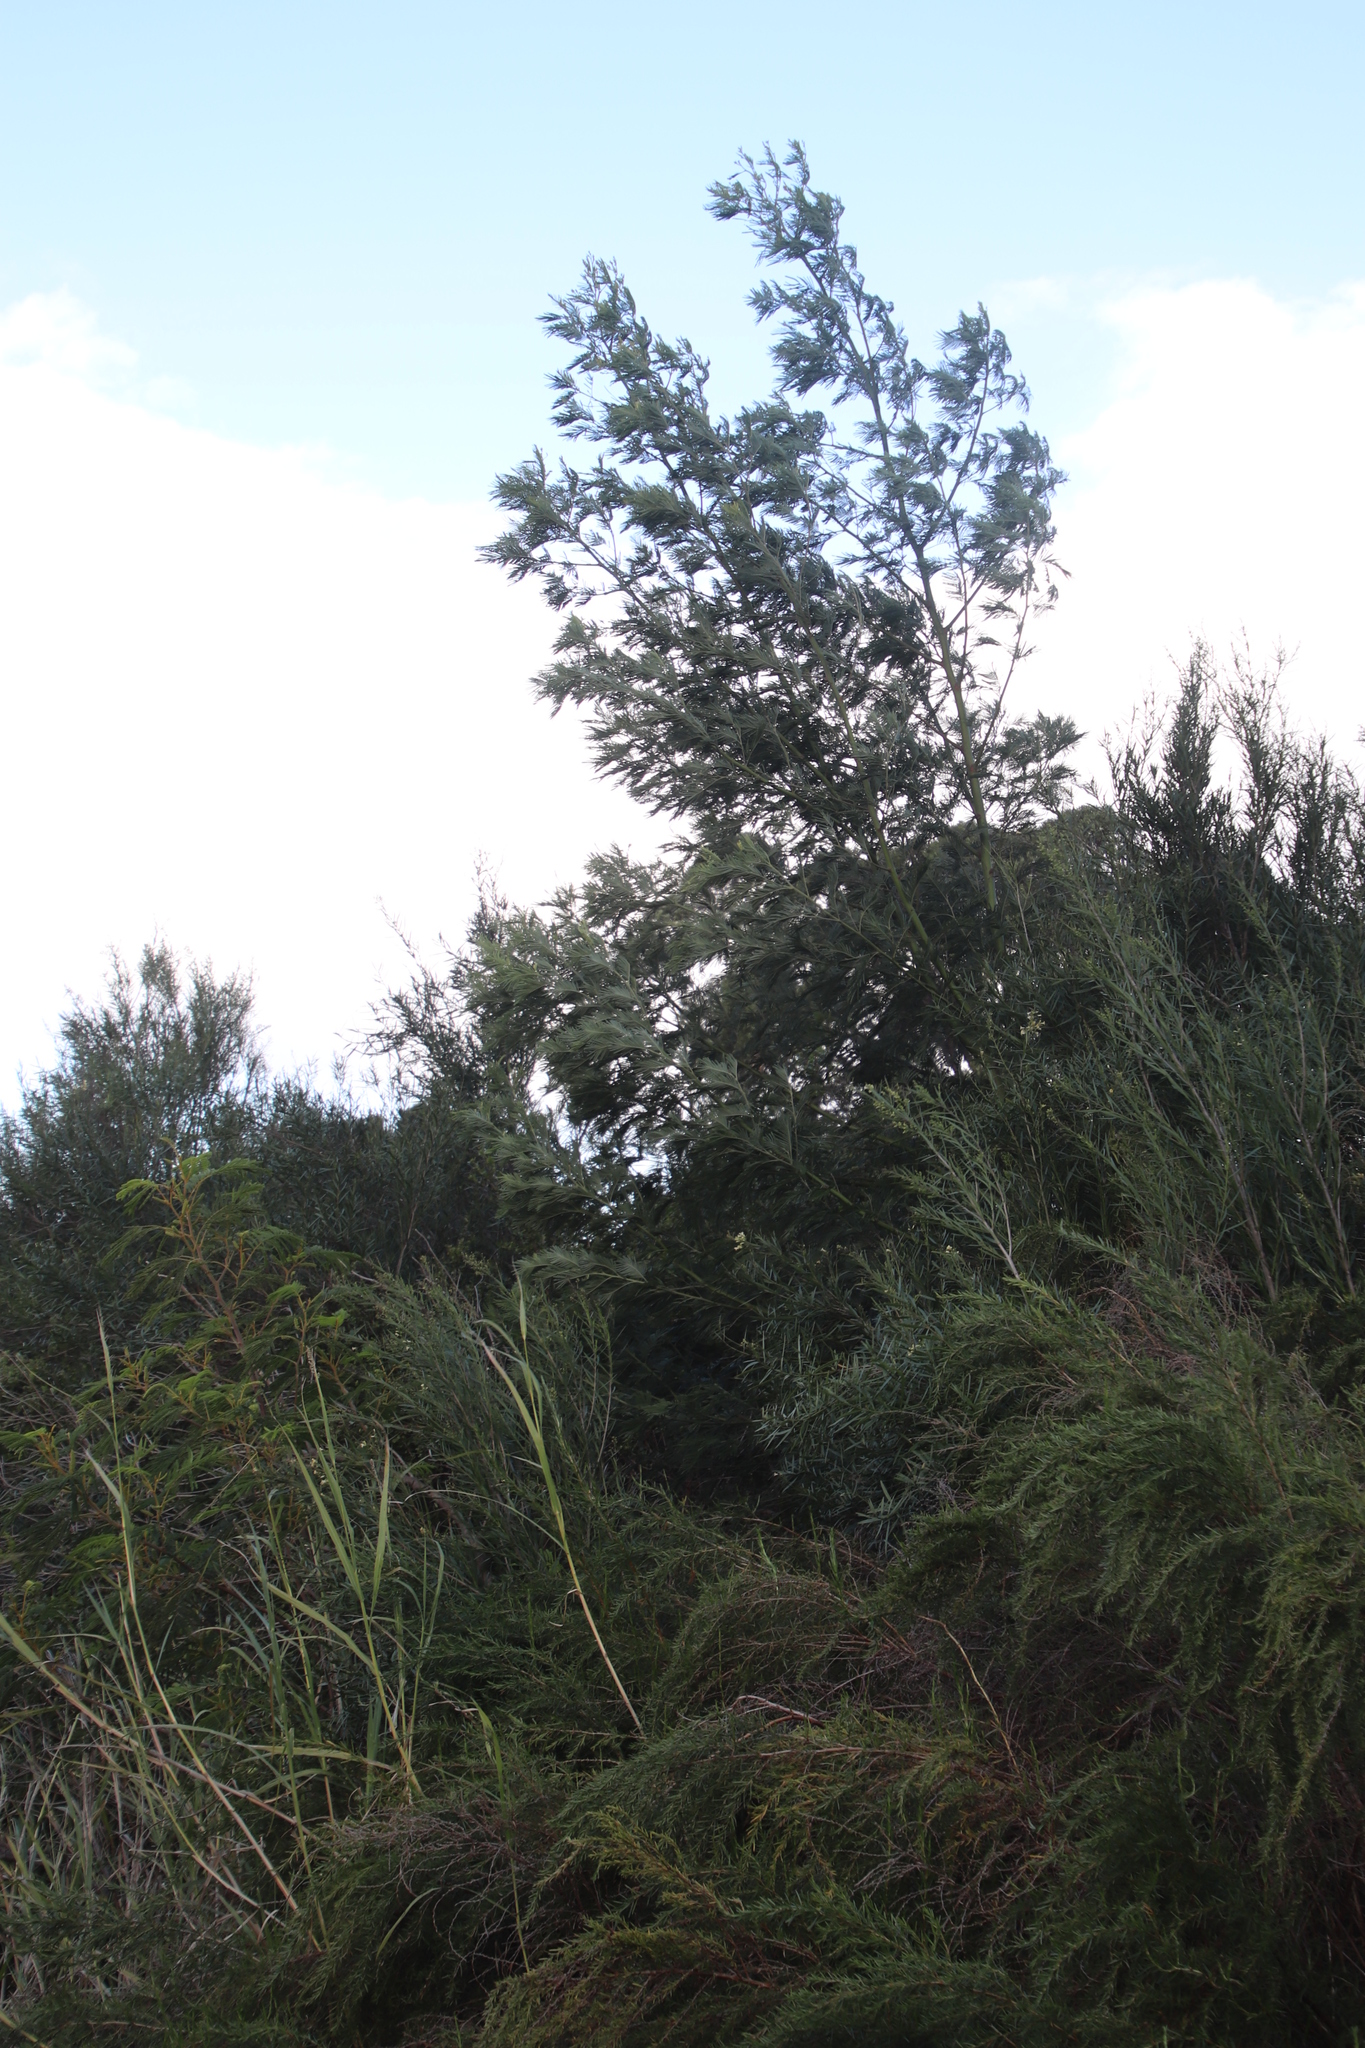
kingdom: Plantae
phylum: Tracheophyta
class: Magnoliopsida
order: Fabales
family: Fabaceae
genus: Acacia
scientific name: Acacia mearnsii
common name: Black wattle
